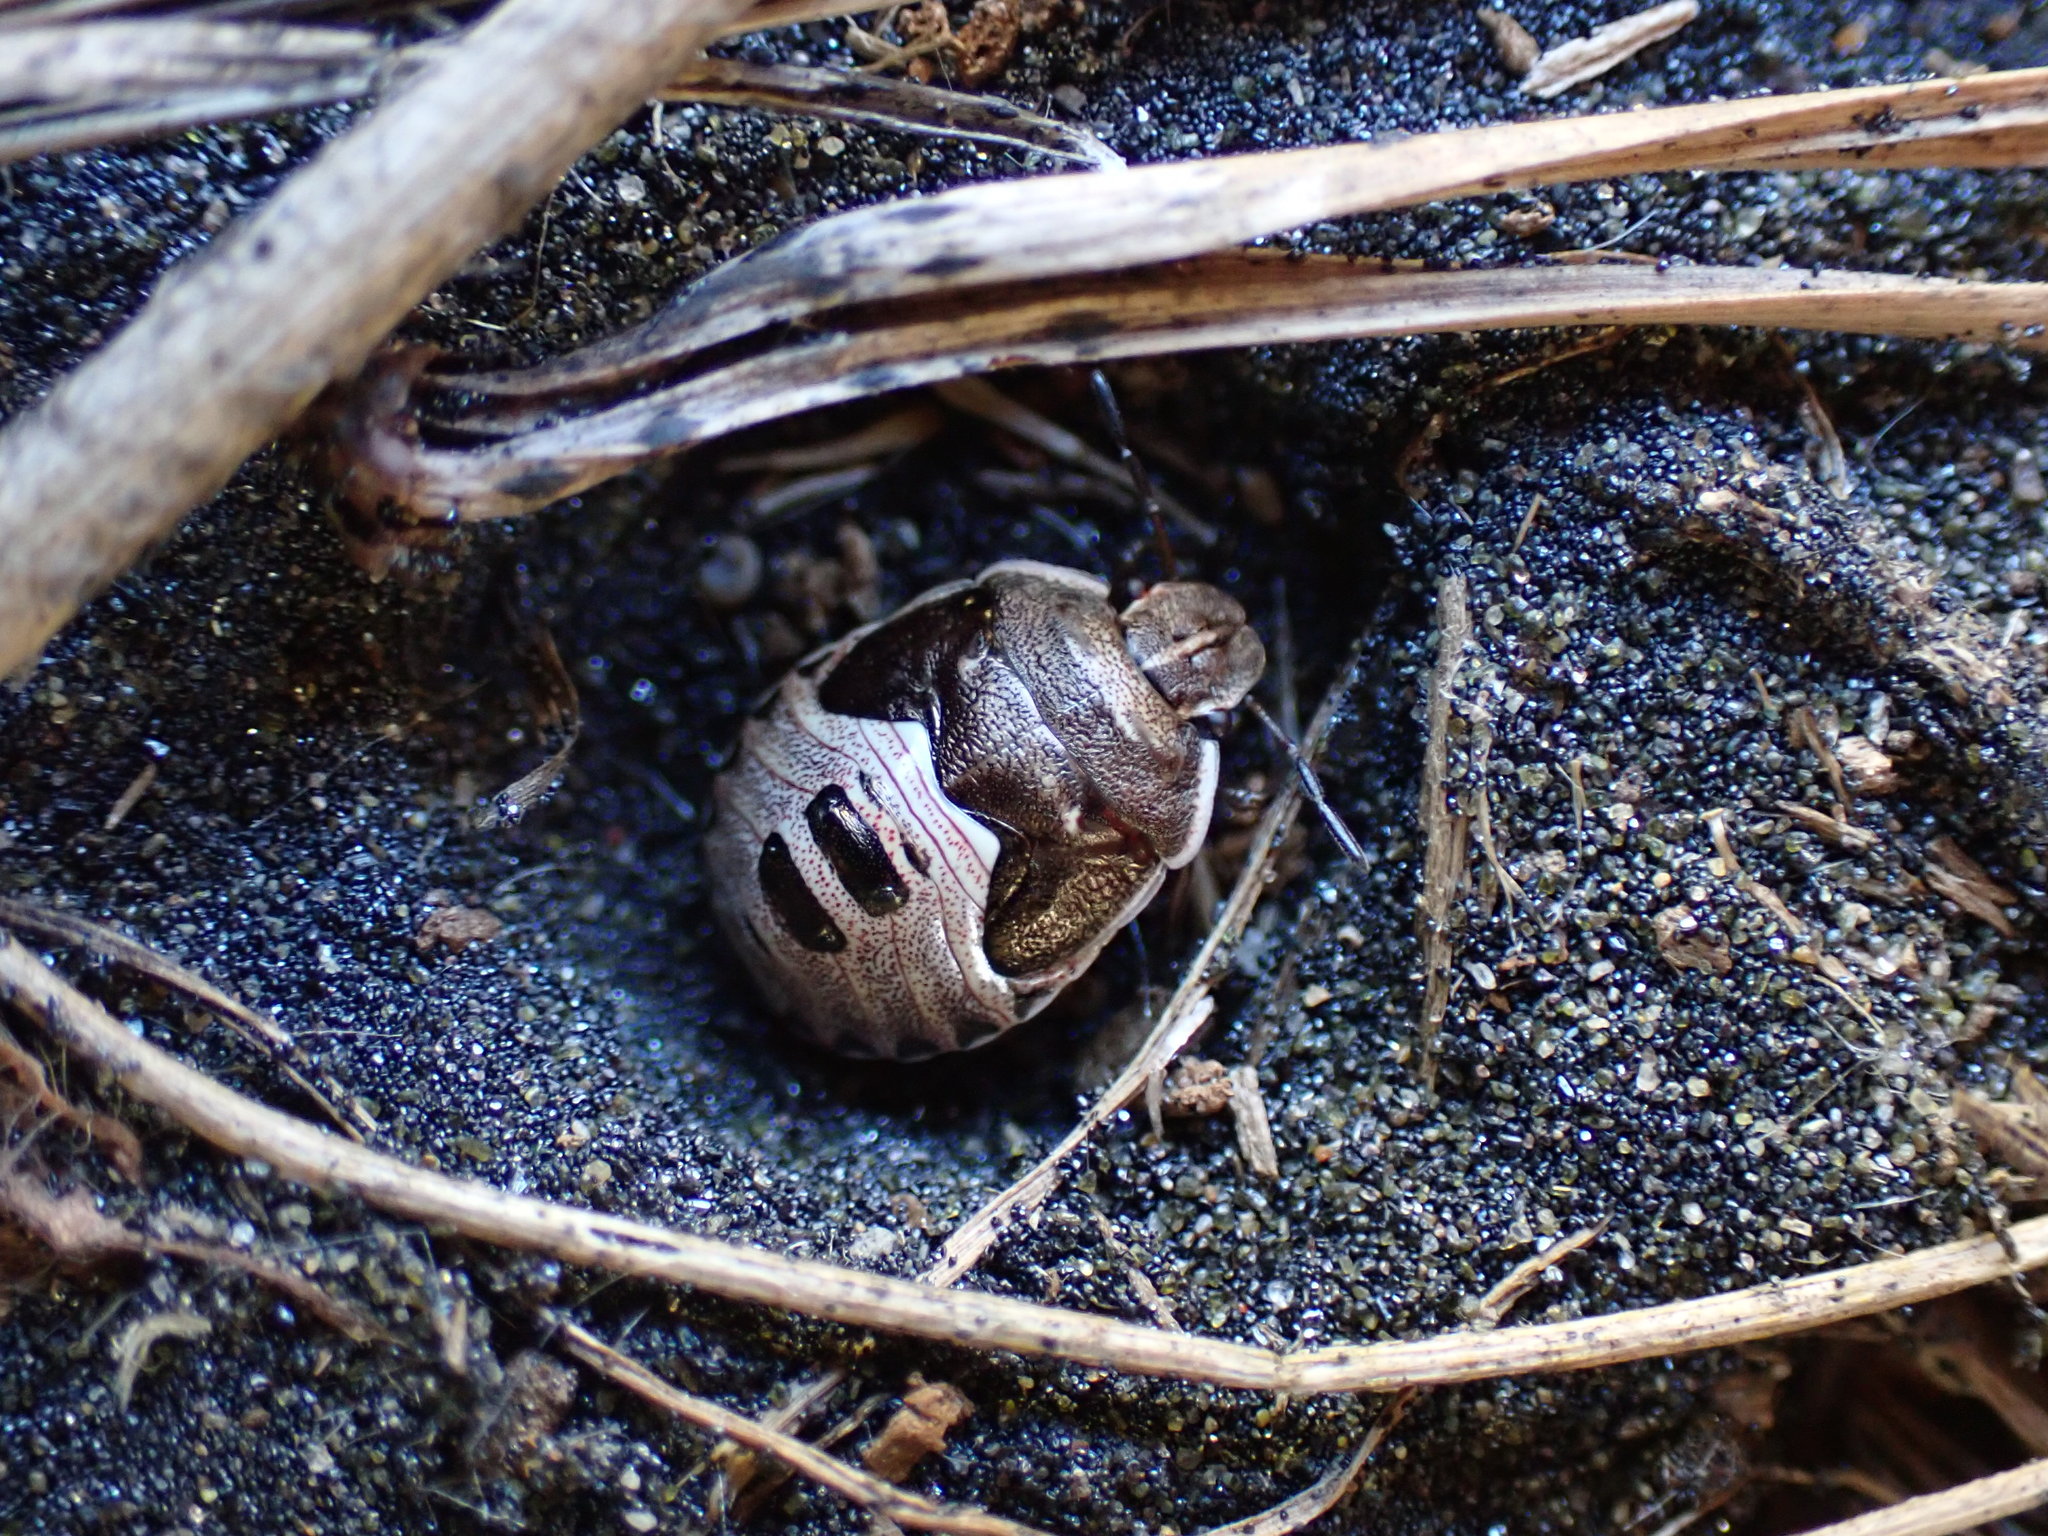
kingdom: Animalia
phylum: Arthropoda
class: Insecta
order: Hemiptera
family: Pentatomidae
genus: Dictyotus
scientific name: Dictyotus caenosus
